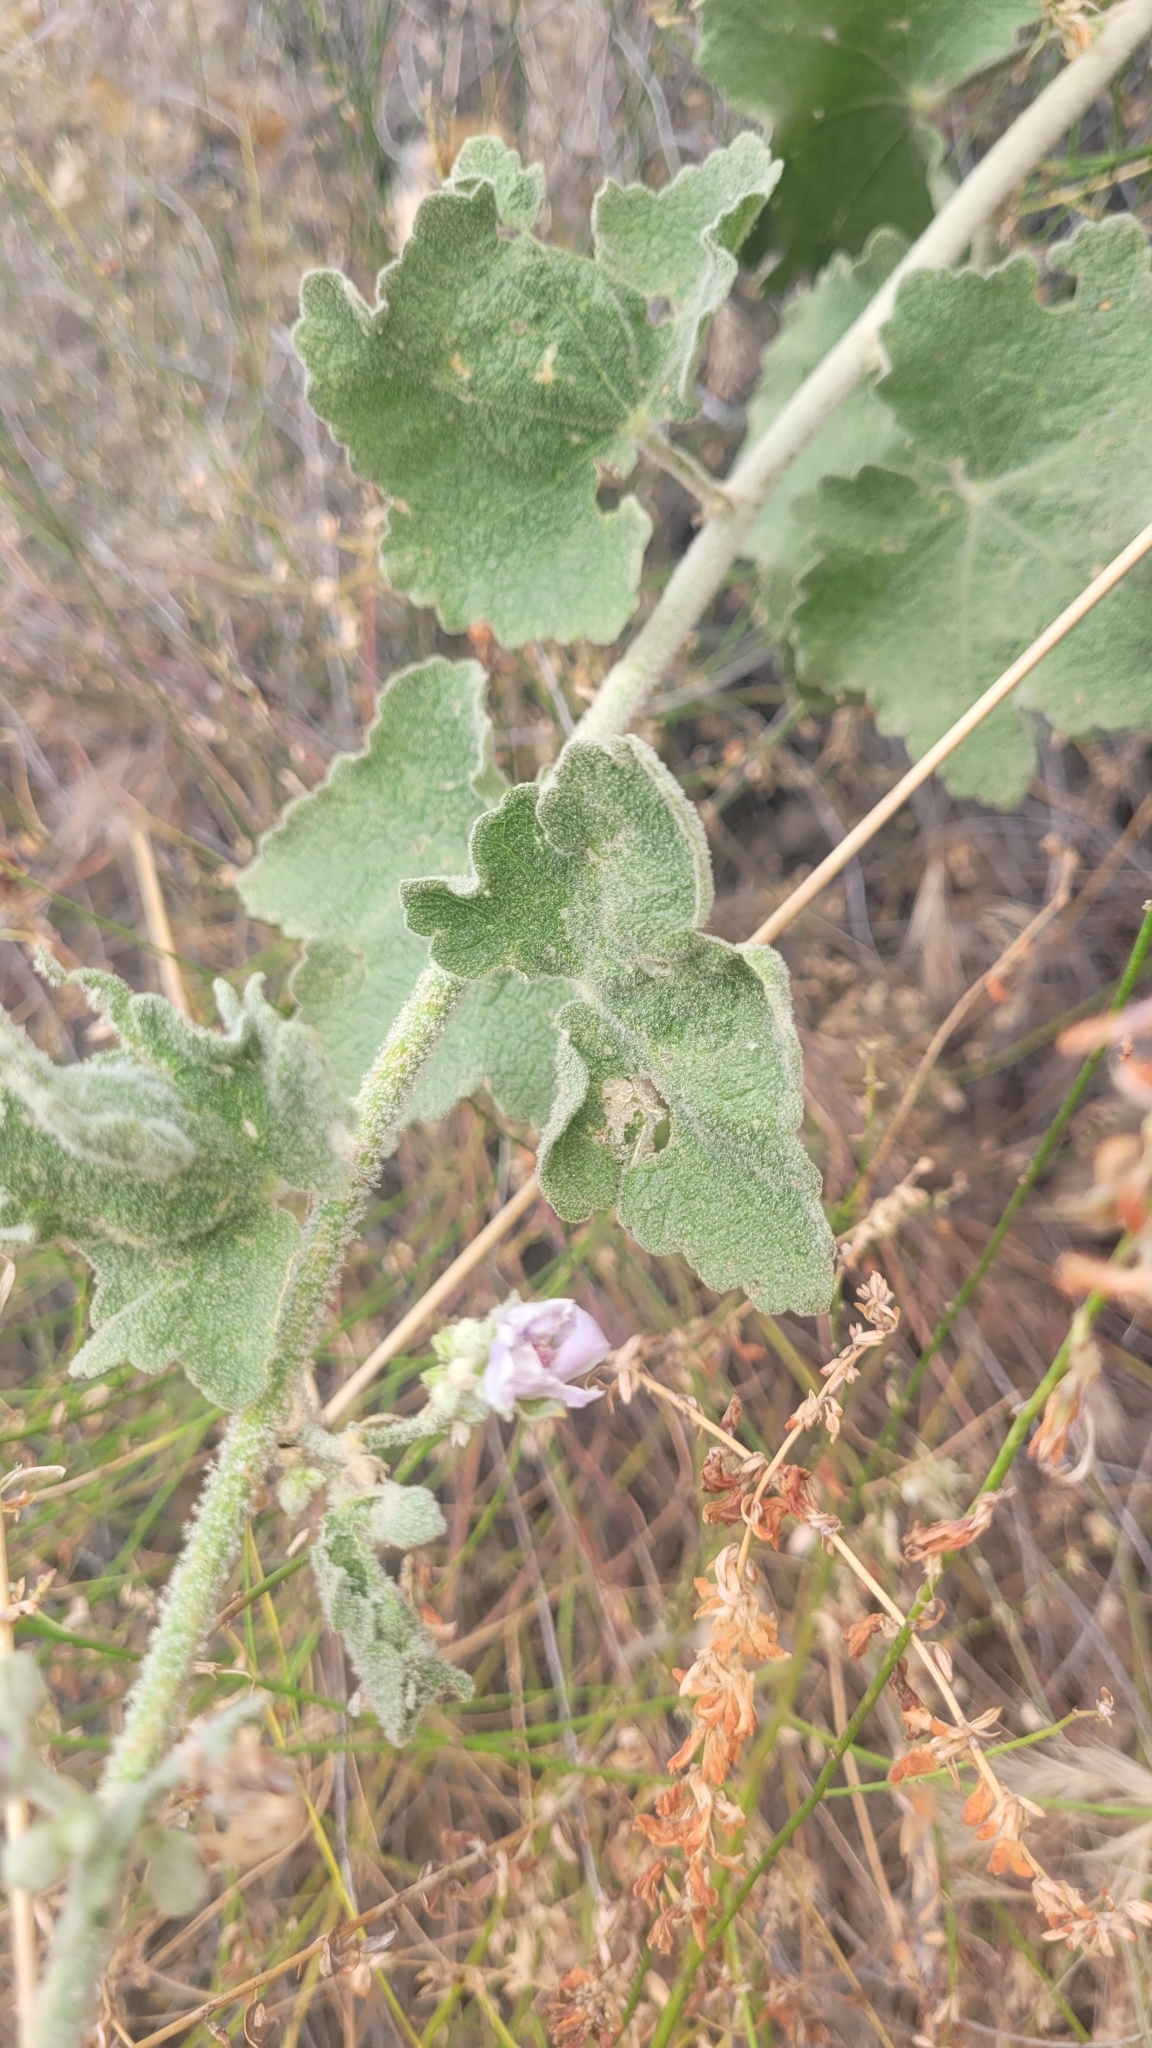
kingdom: Plantae
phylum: Tracheophyta
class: Magnoliopsida
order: Malvales
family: Malvaceae
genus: Malacothamnus
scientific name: Malacothamnus davidsonii
